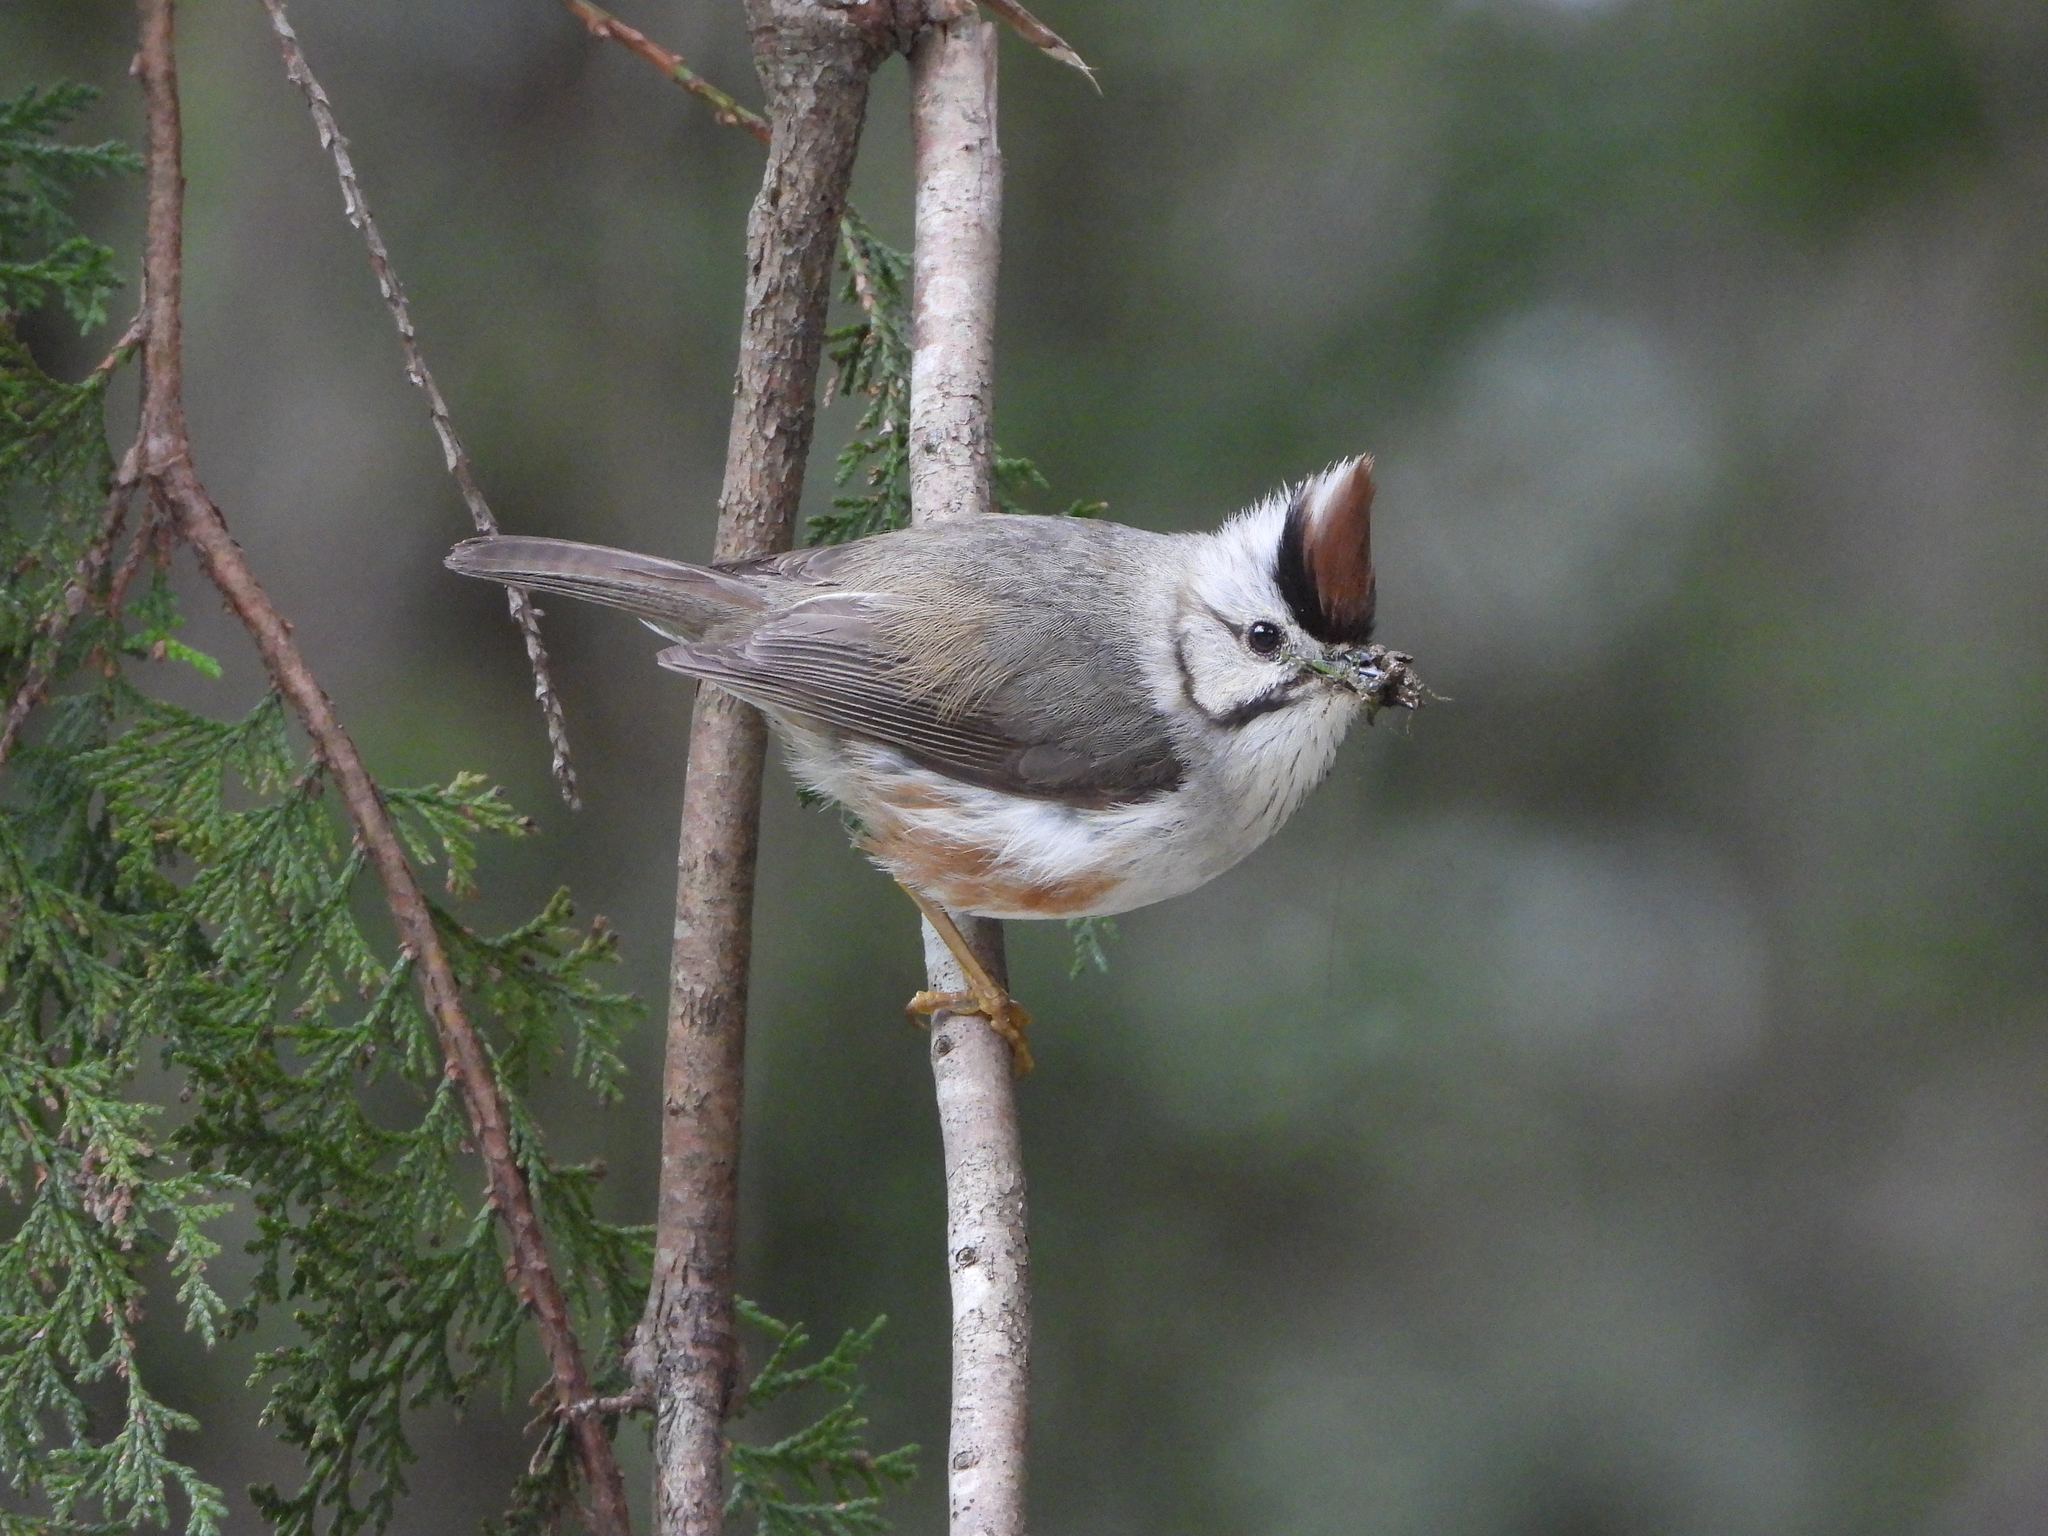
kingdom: Animalia
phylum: Chordata
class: Aves
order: Passeriformes
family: Zosteropidae
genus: Yuhina
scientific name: Yuhina brunneiceps
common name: Taiwan yuhina
